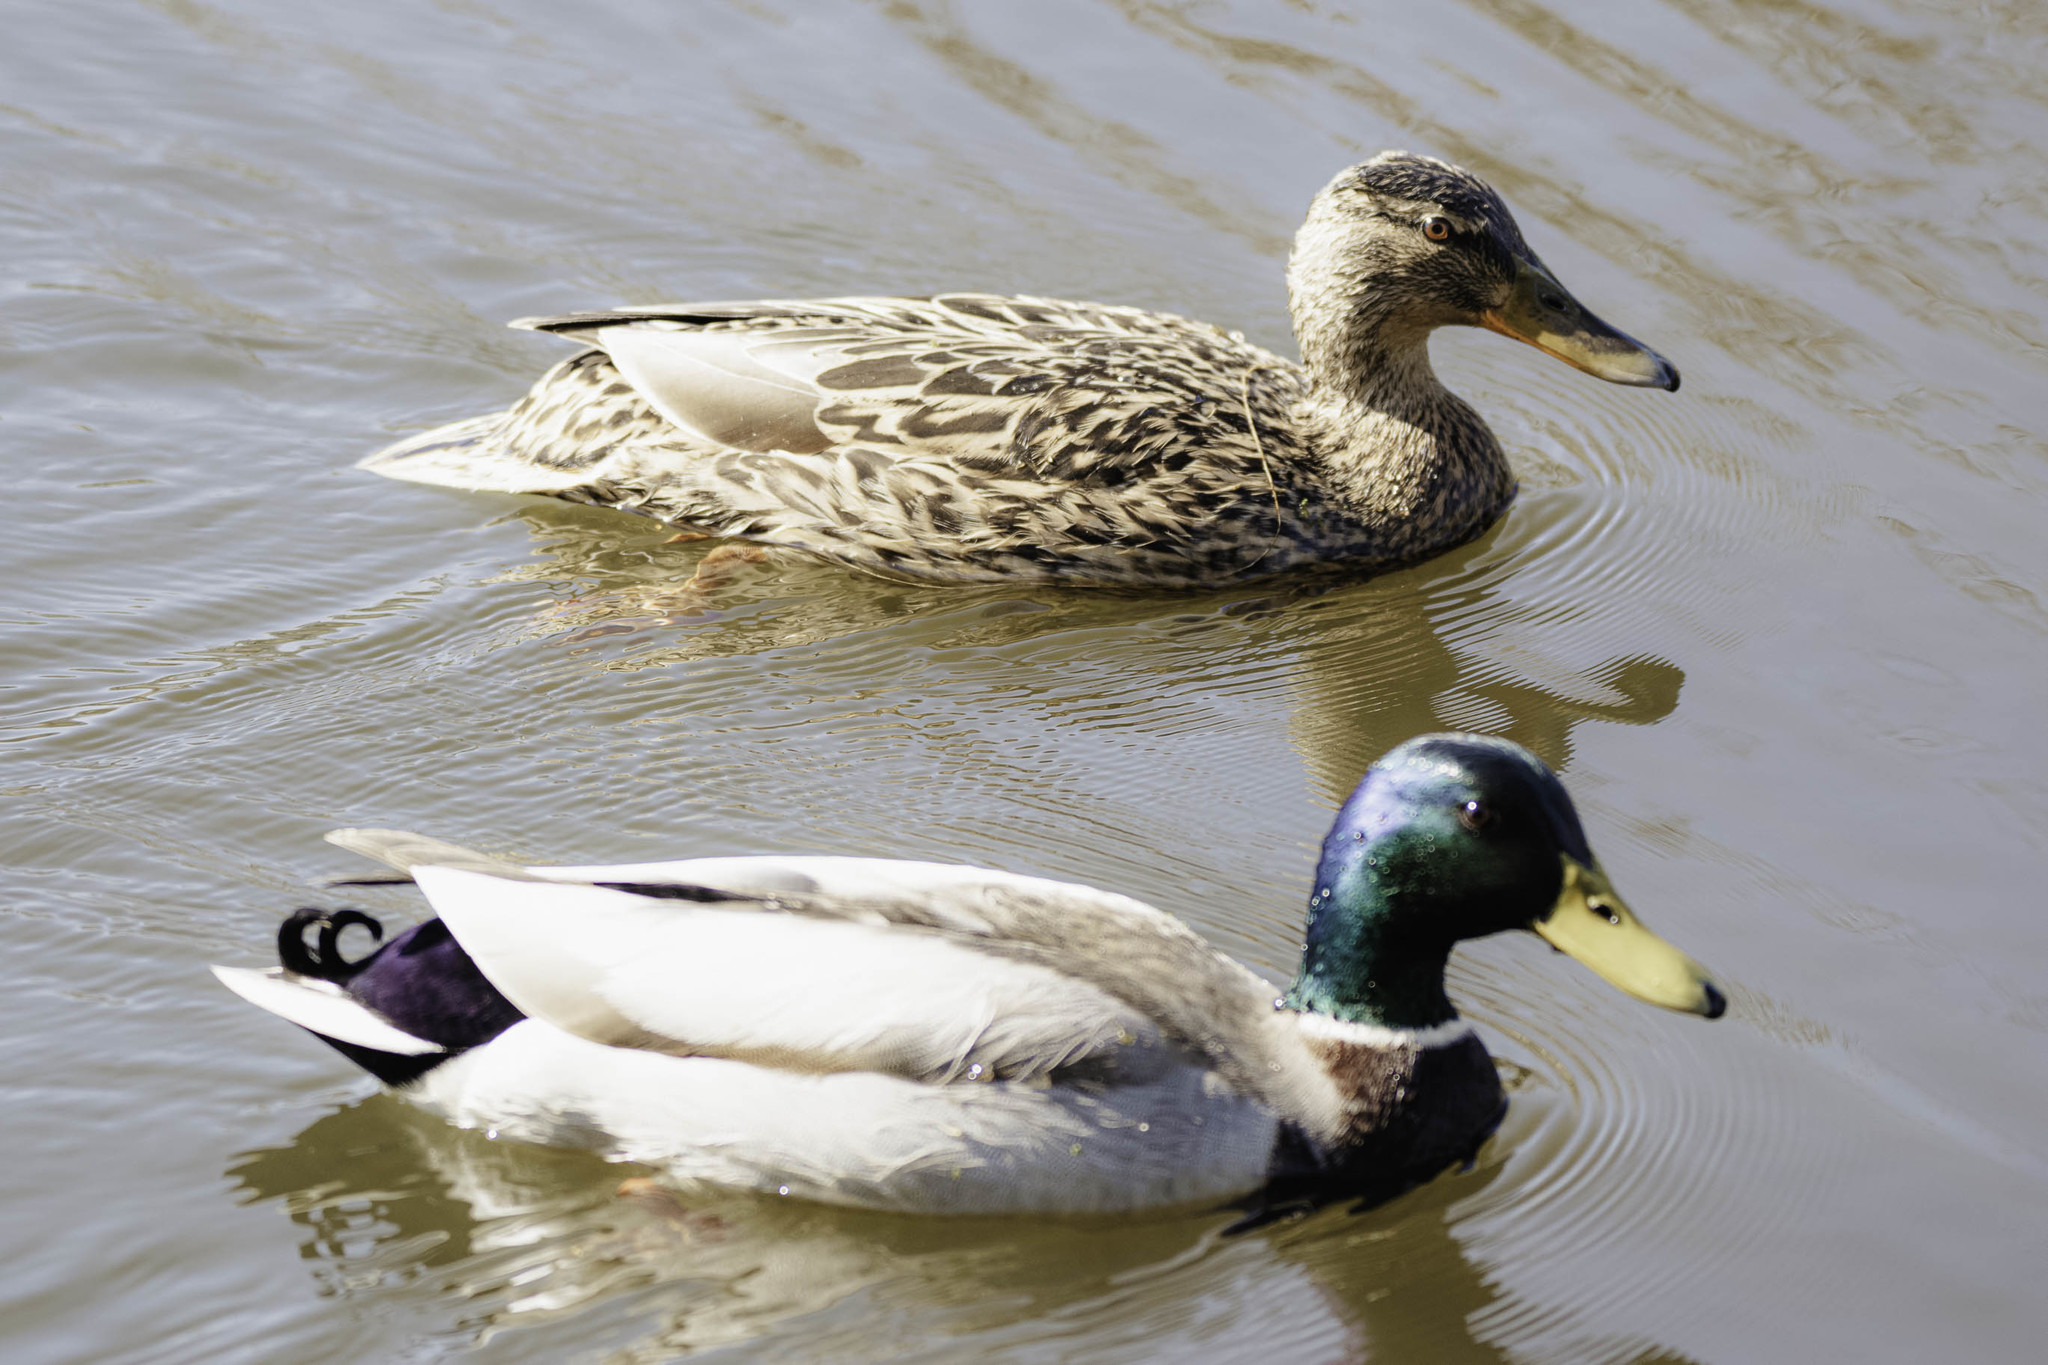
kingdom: Animalia
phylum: Chordata
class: Aves
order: Anseriformes
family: Anatidae
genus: Anas
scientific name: Anas platyrhynchos
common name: Mallard
